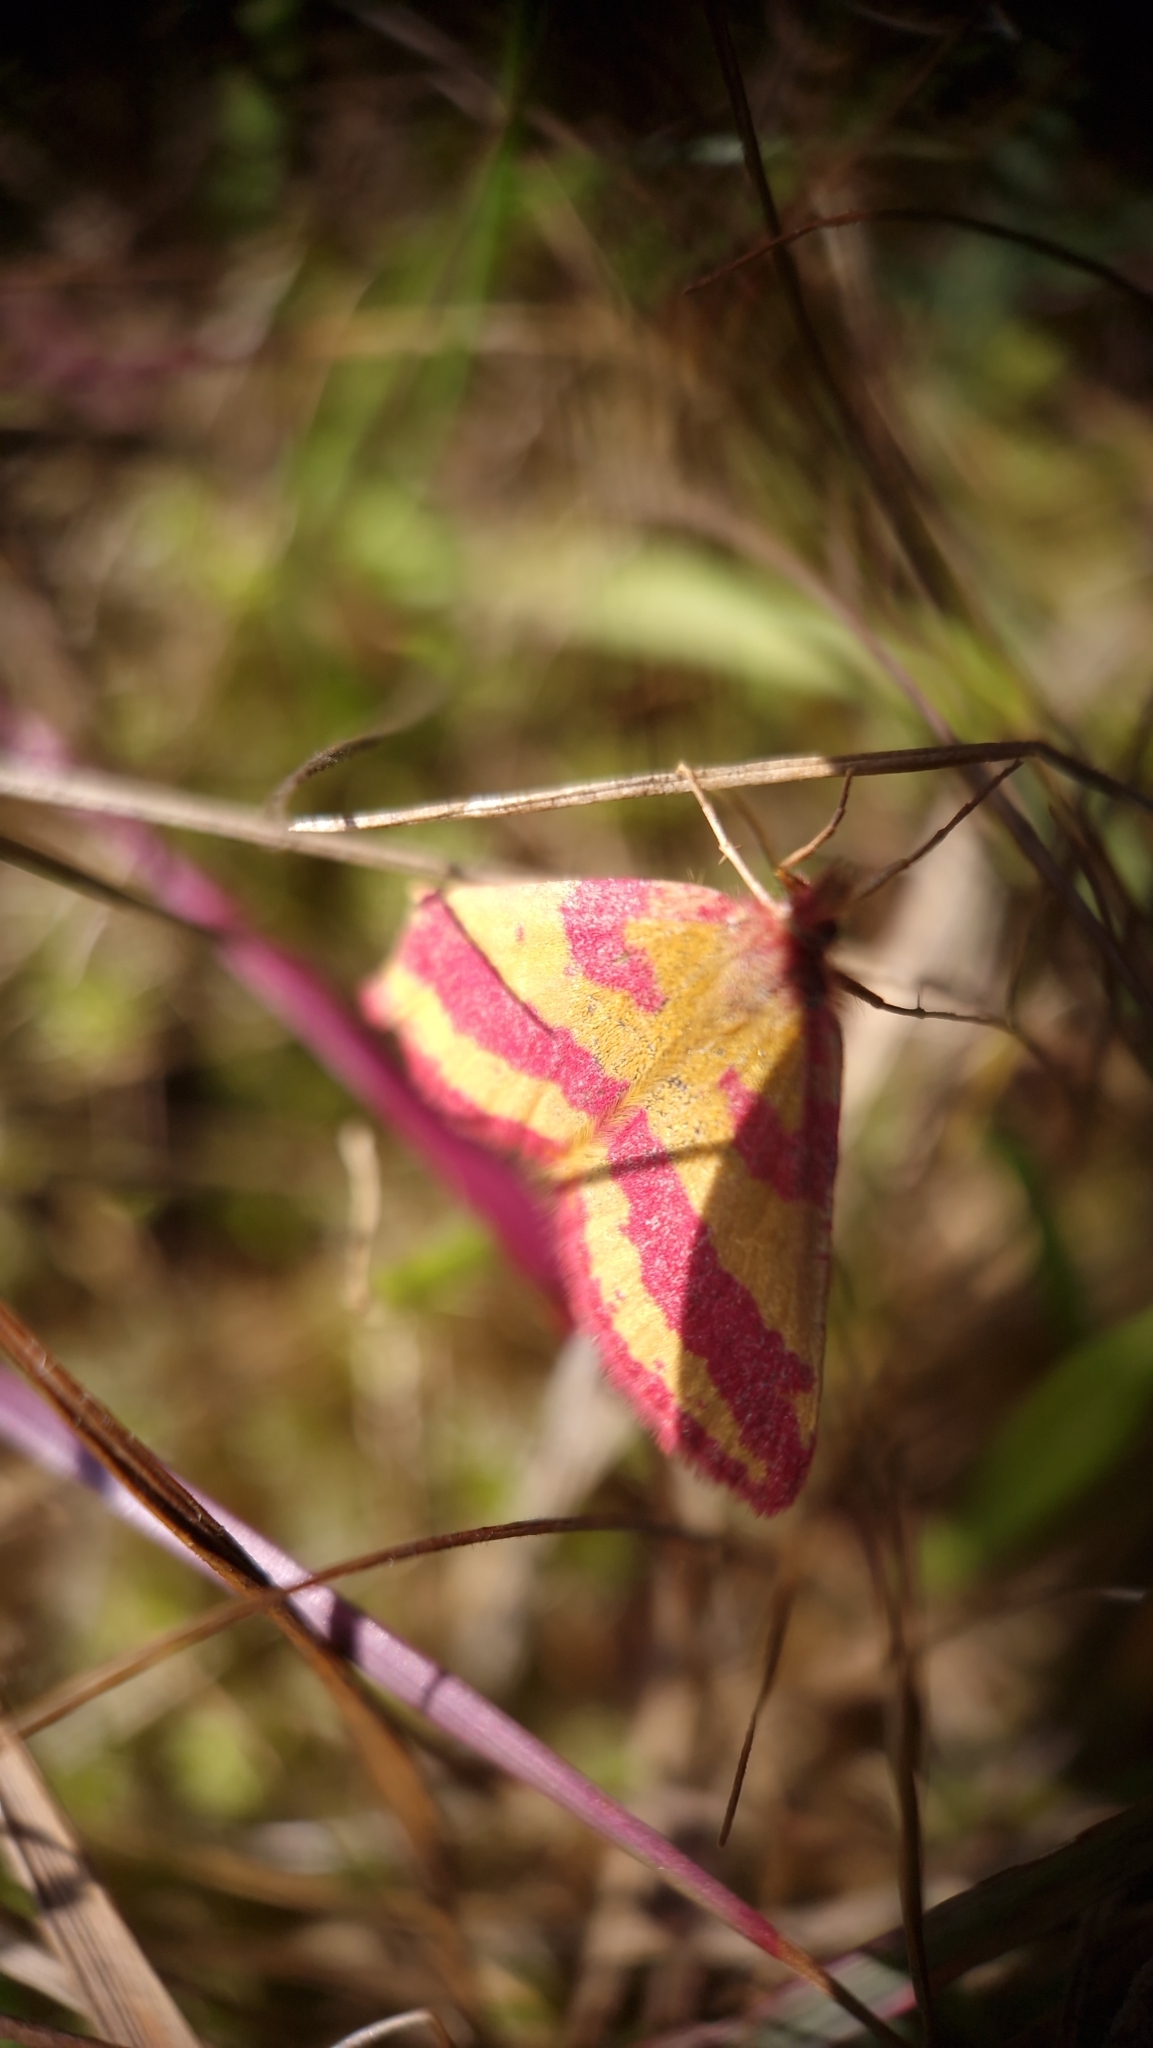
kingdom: Animalia
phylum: Arthropoda
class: Insecta
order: Lepidoptera
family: Geometridae
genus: Lythria
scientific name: Lythria cruentaria
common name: Purple-barred yellow
